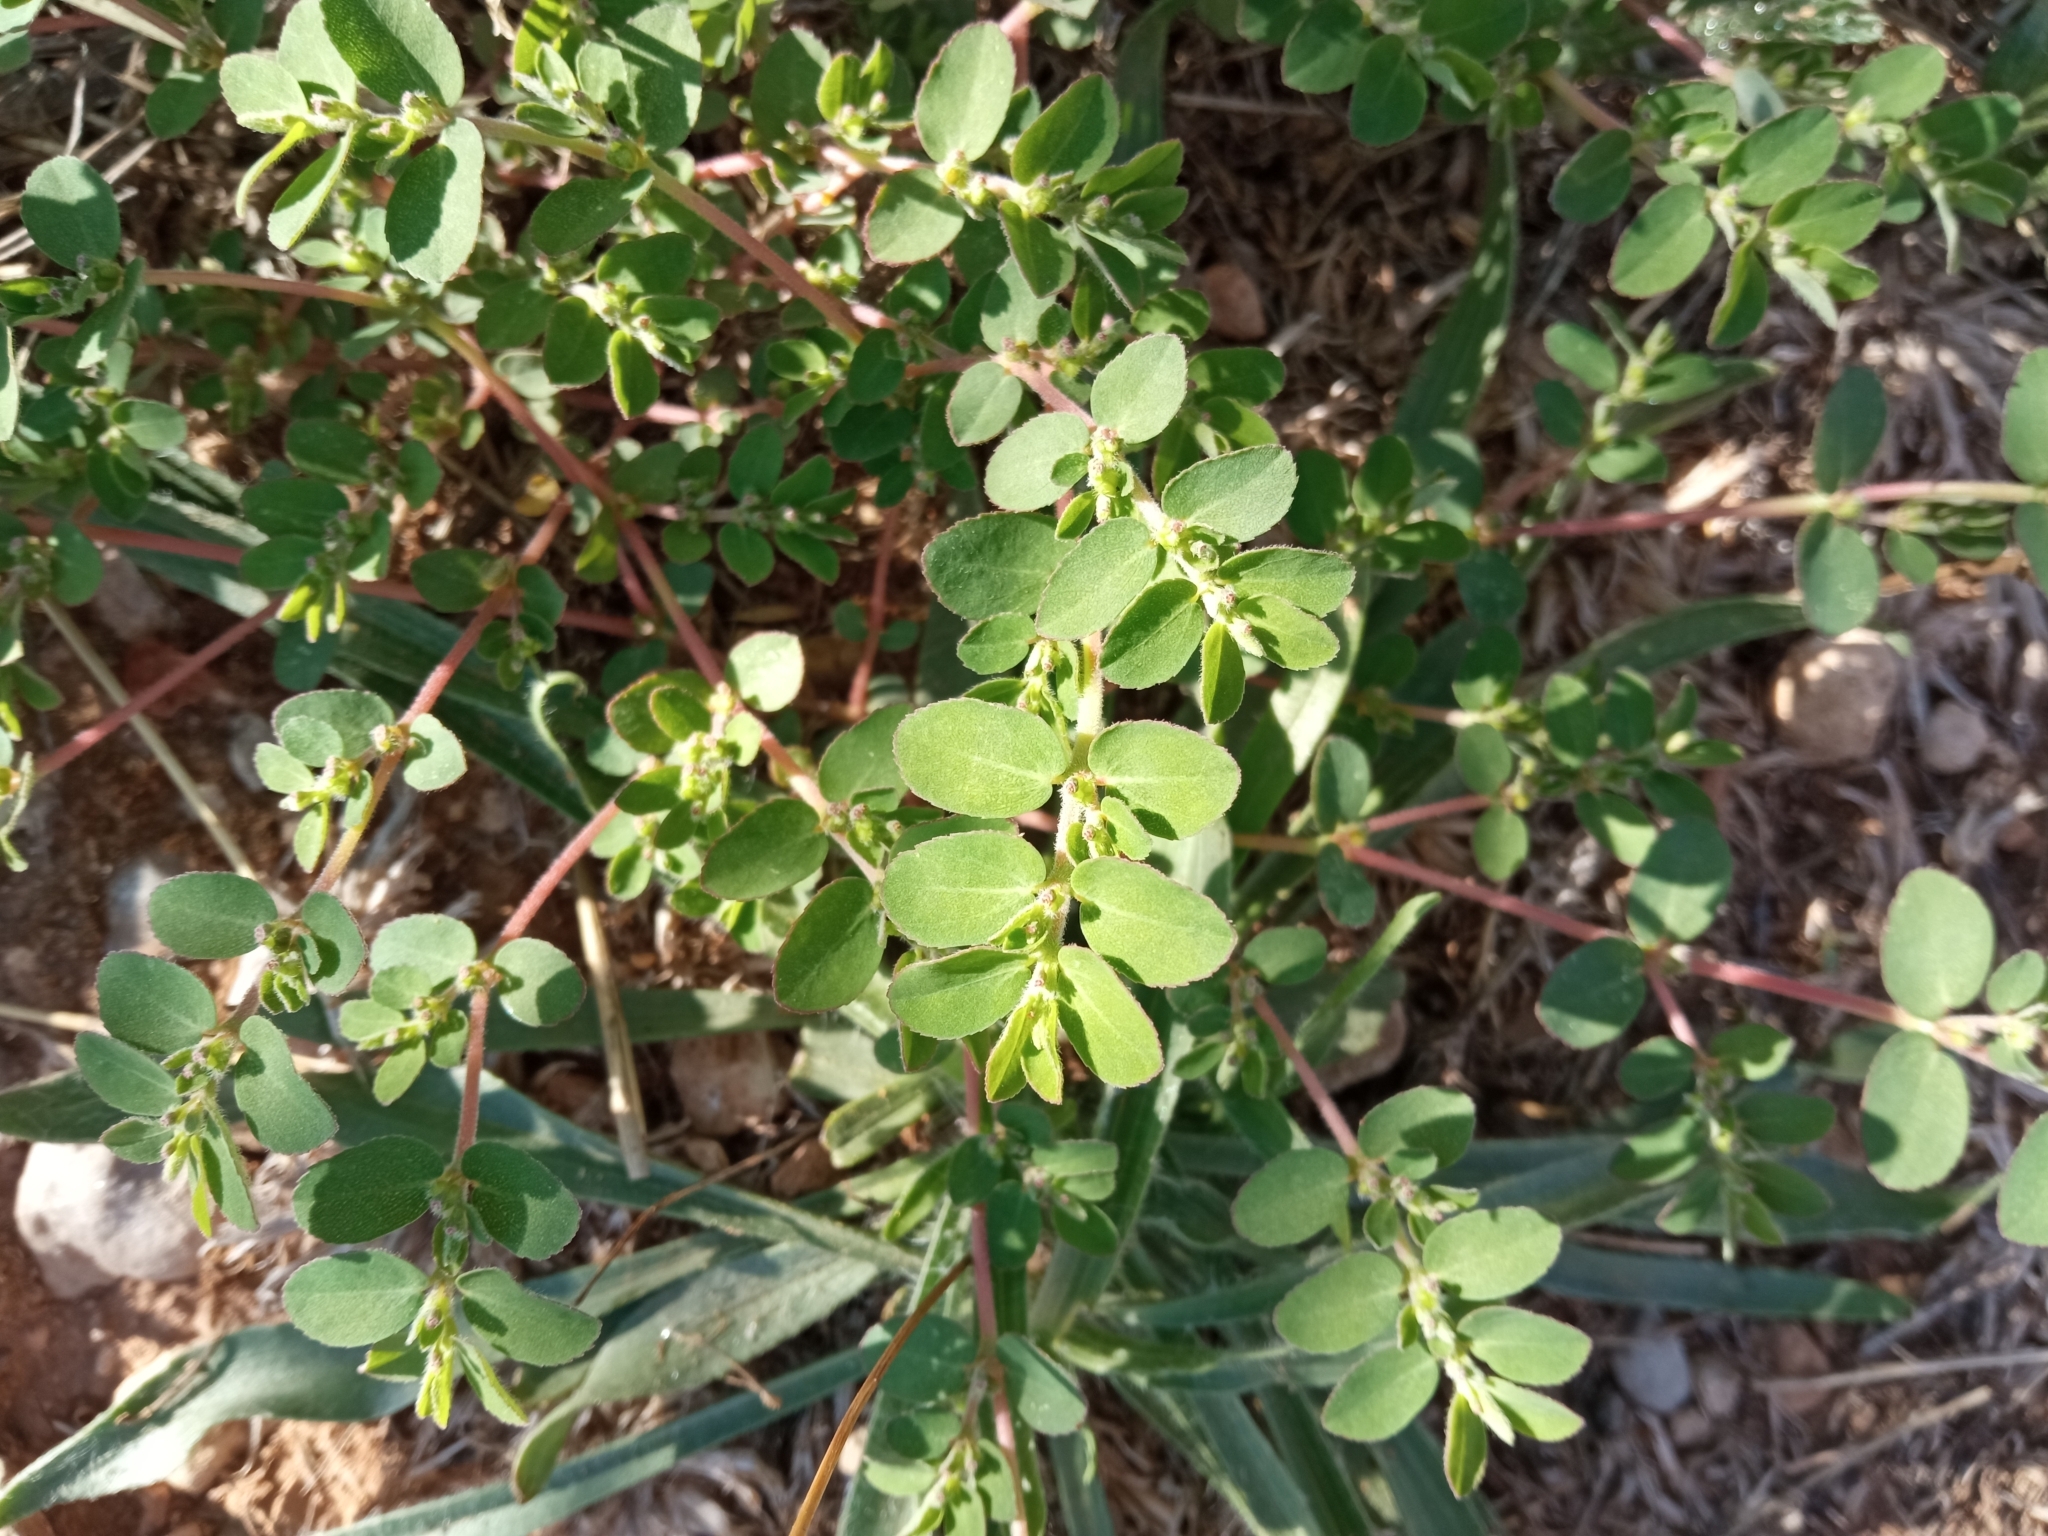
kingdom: Plantae
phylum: Tracheophyta
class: Magnoliopsida
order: Malpighiales
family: Euphorbiaceae
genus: Euphorbia
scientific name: Euphorbia prostrata
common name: Prostrate sandmat
